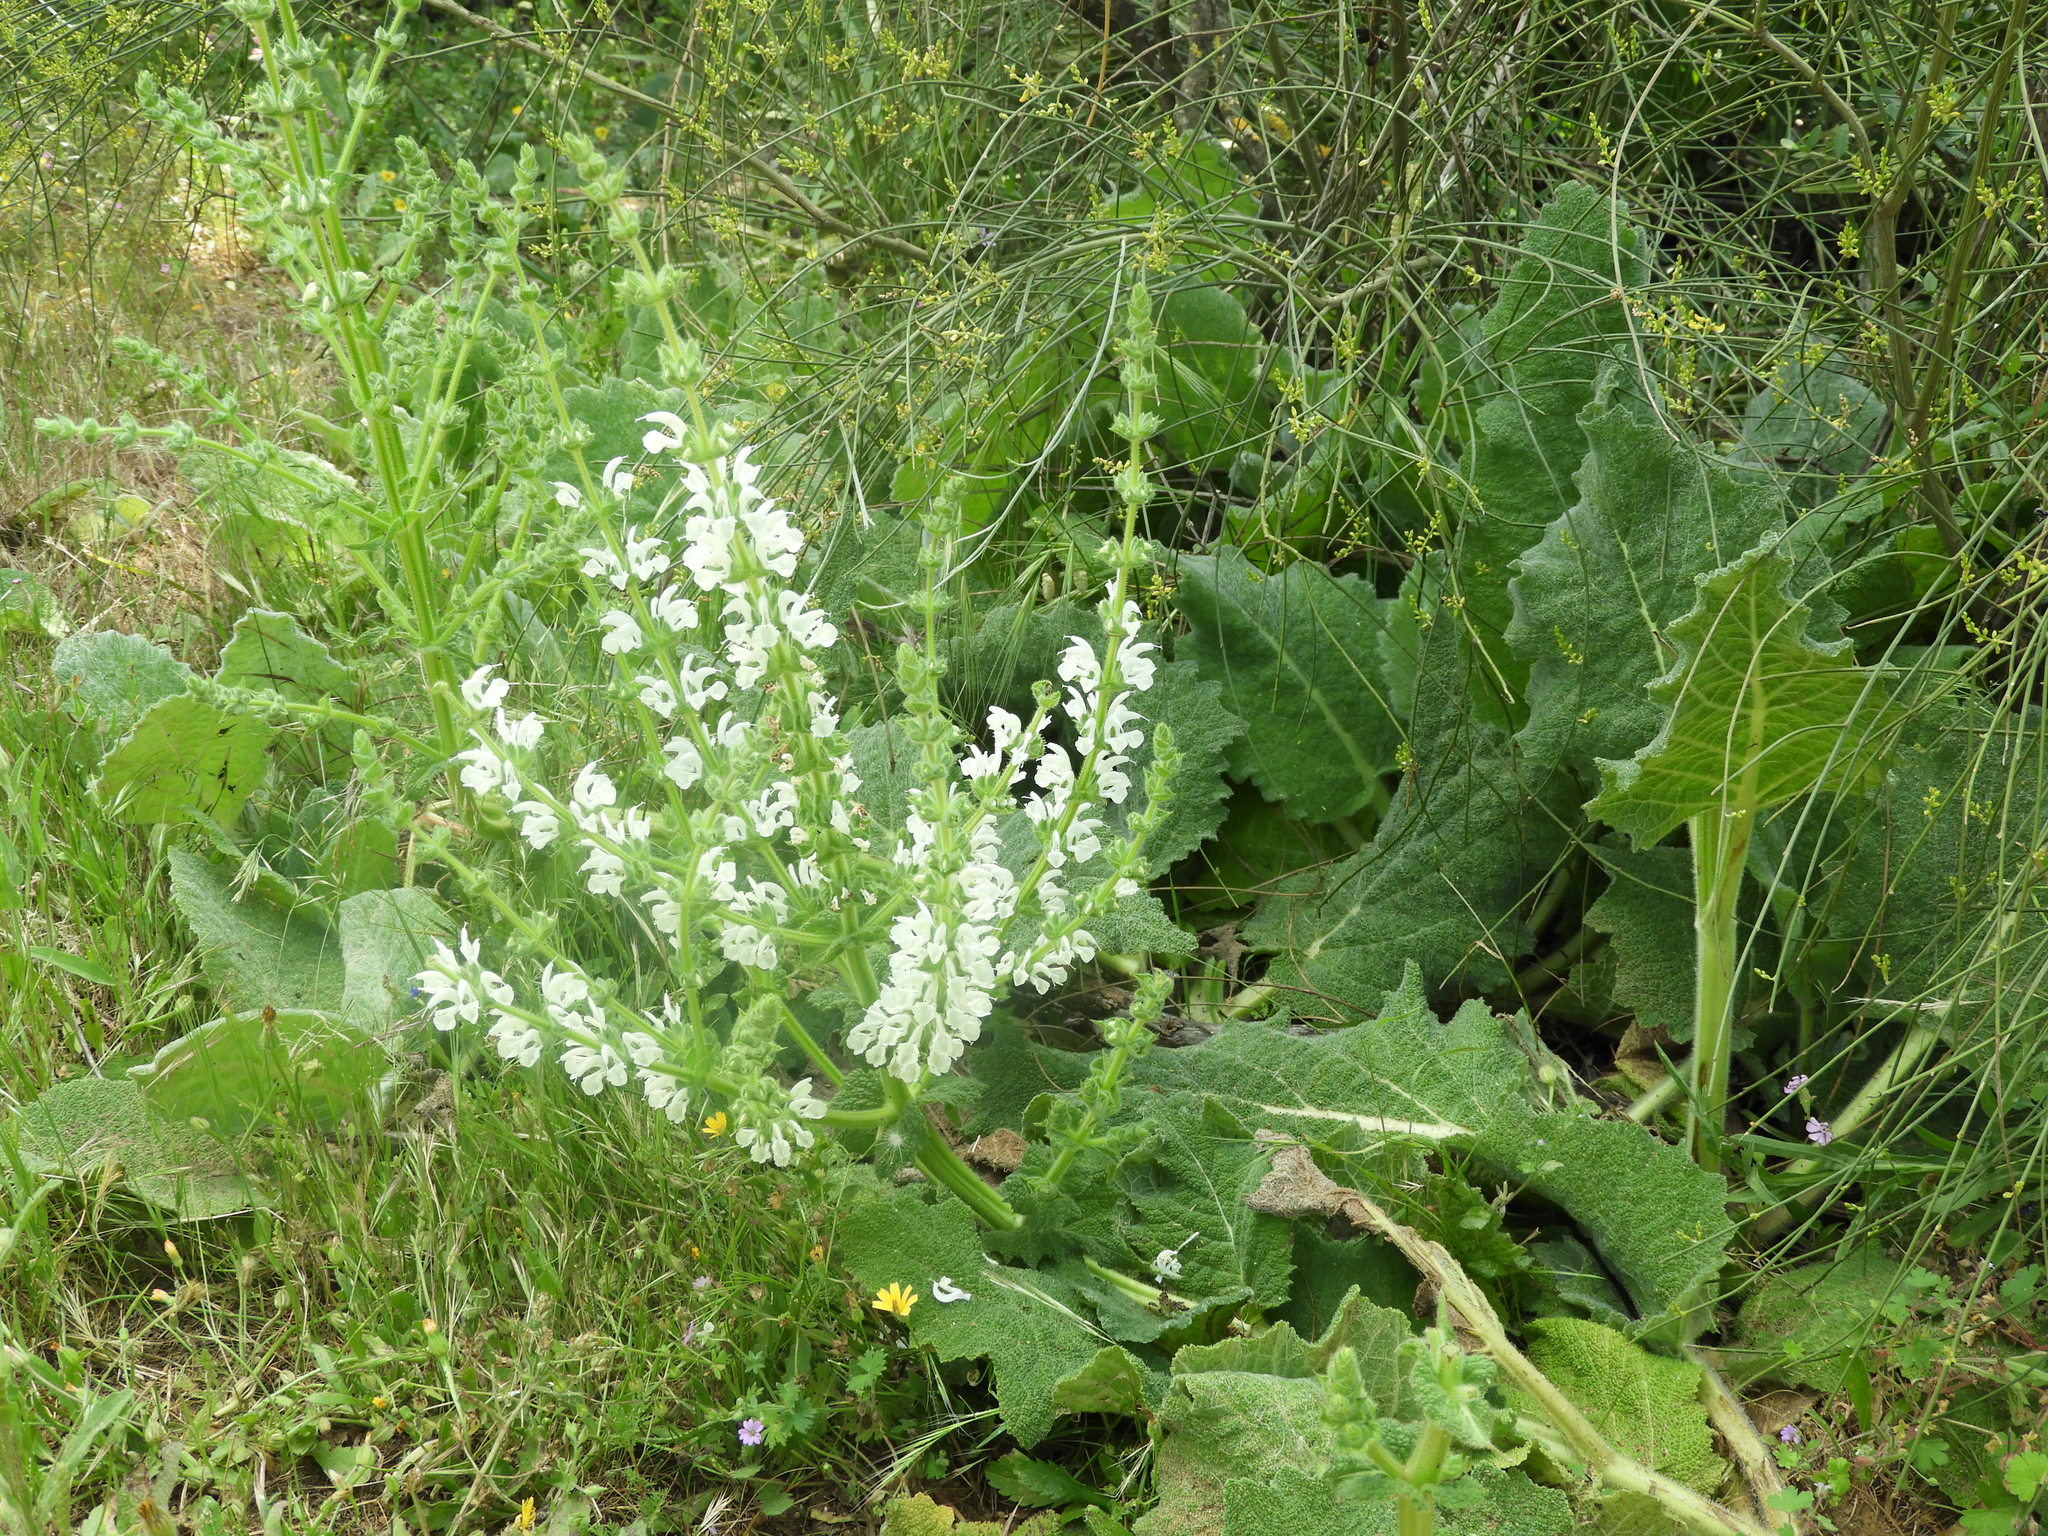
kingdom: Plantae
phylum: Tracheophyta
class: Magnoliopsida
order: Lamiales
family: Lamiaceae
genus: Salvia
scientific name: Salvia argentea
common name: Silver sage
